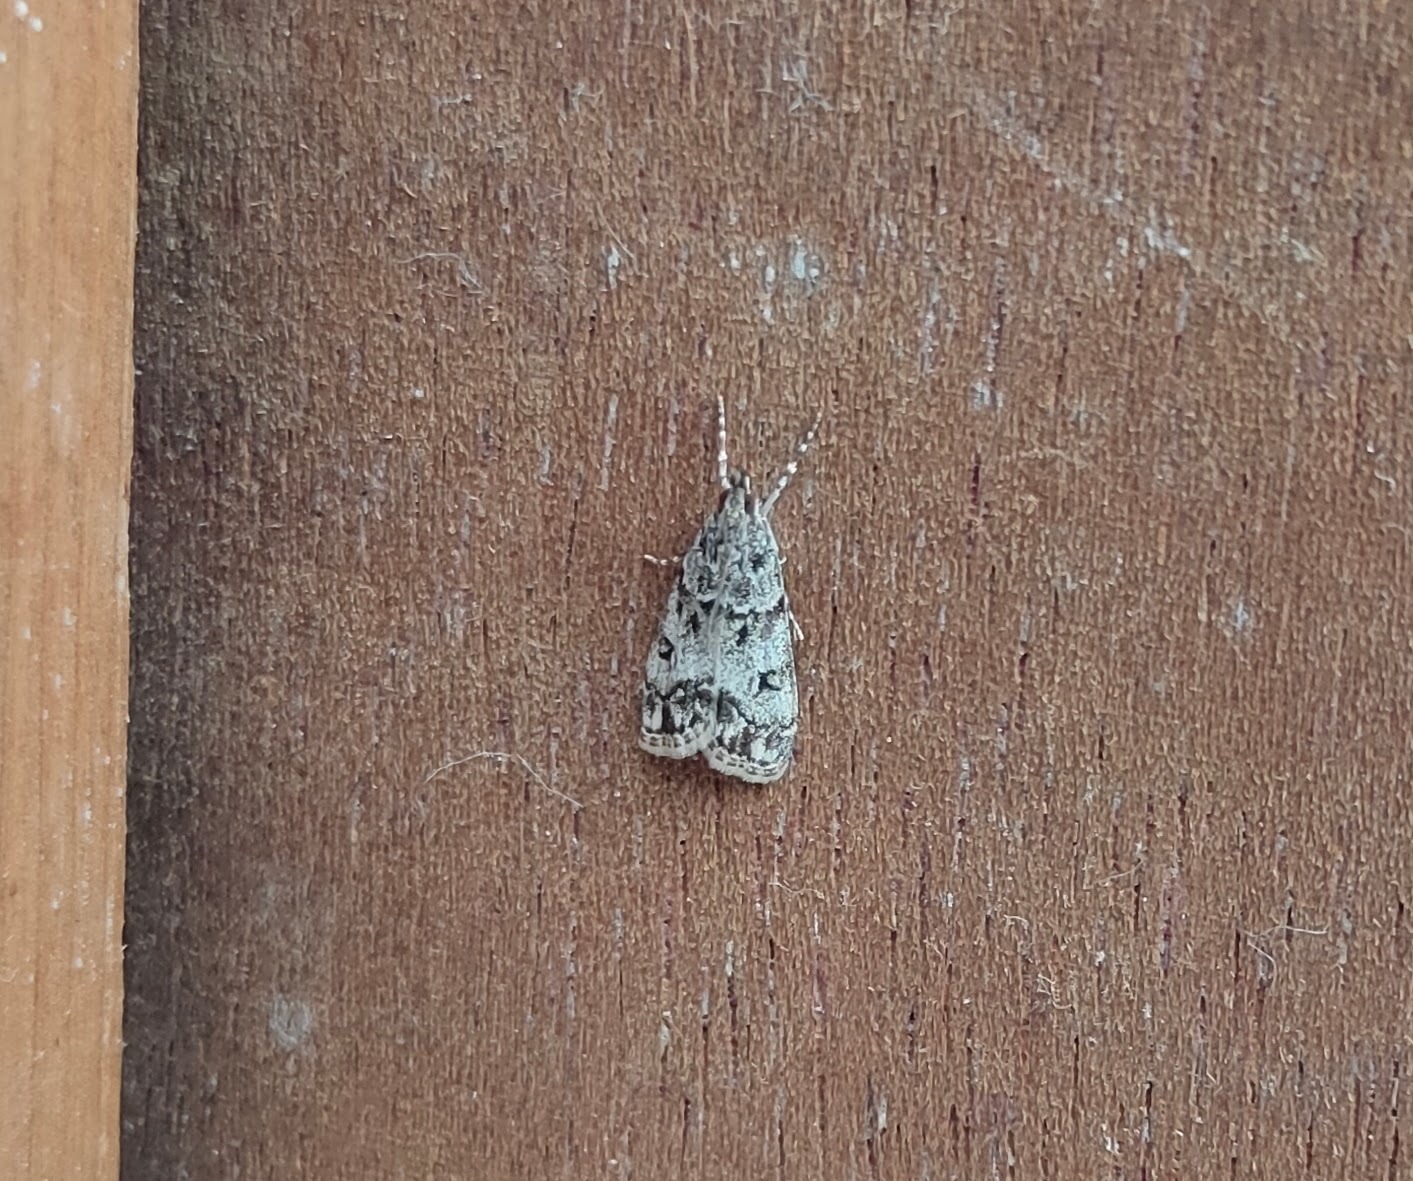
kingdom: Animalia
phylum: Arthropoda
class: Insecta
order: Lepidoptera
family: Crambidae
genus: Eudonia
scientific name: Eudonia lacustrata
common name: Little grey
